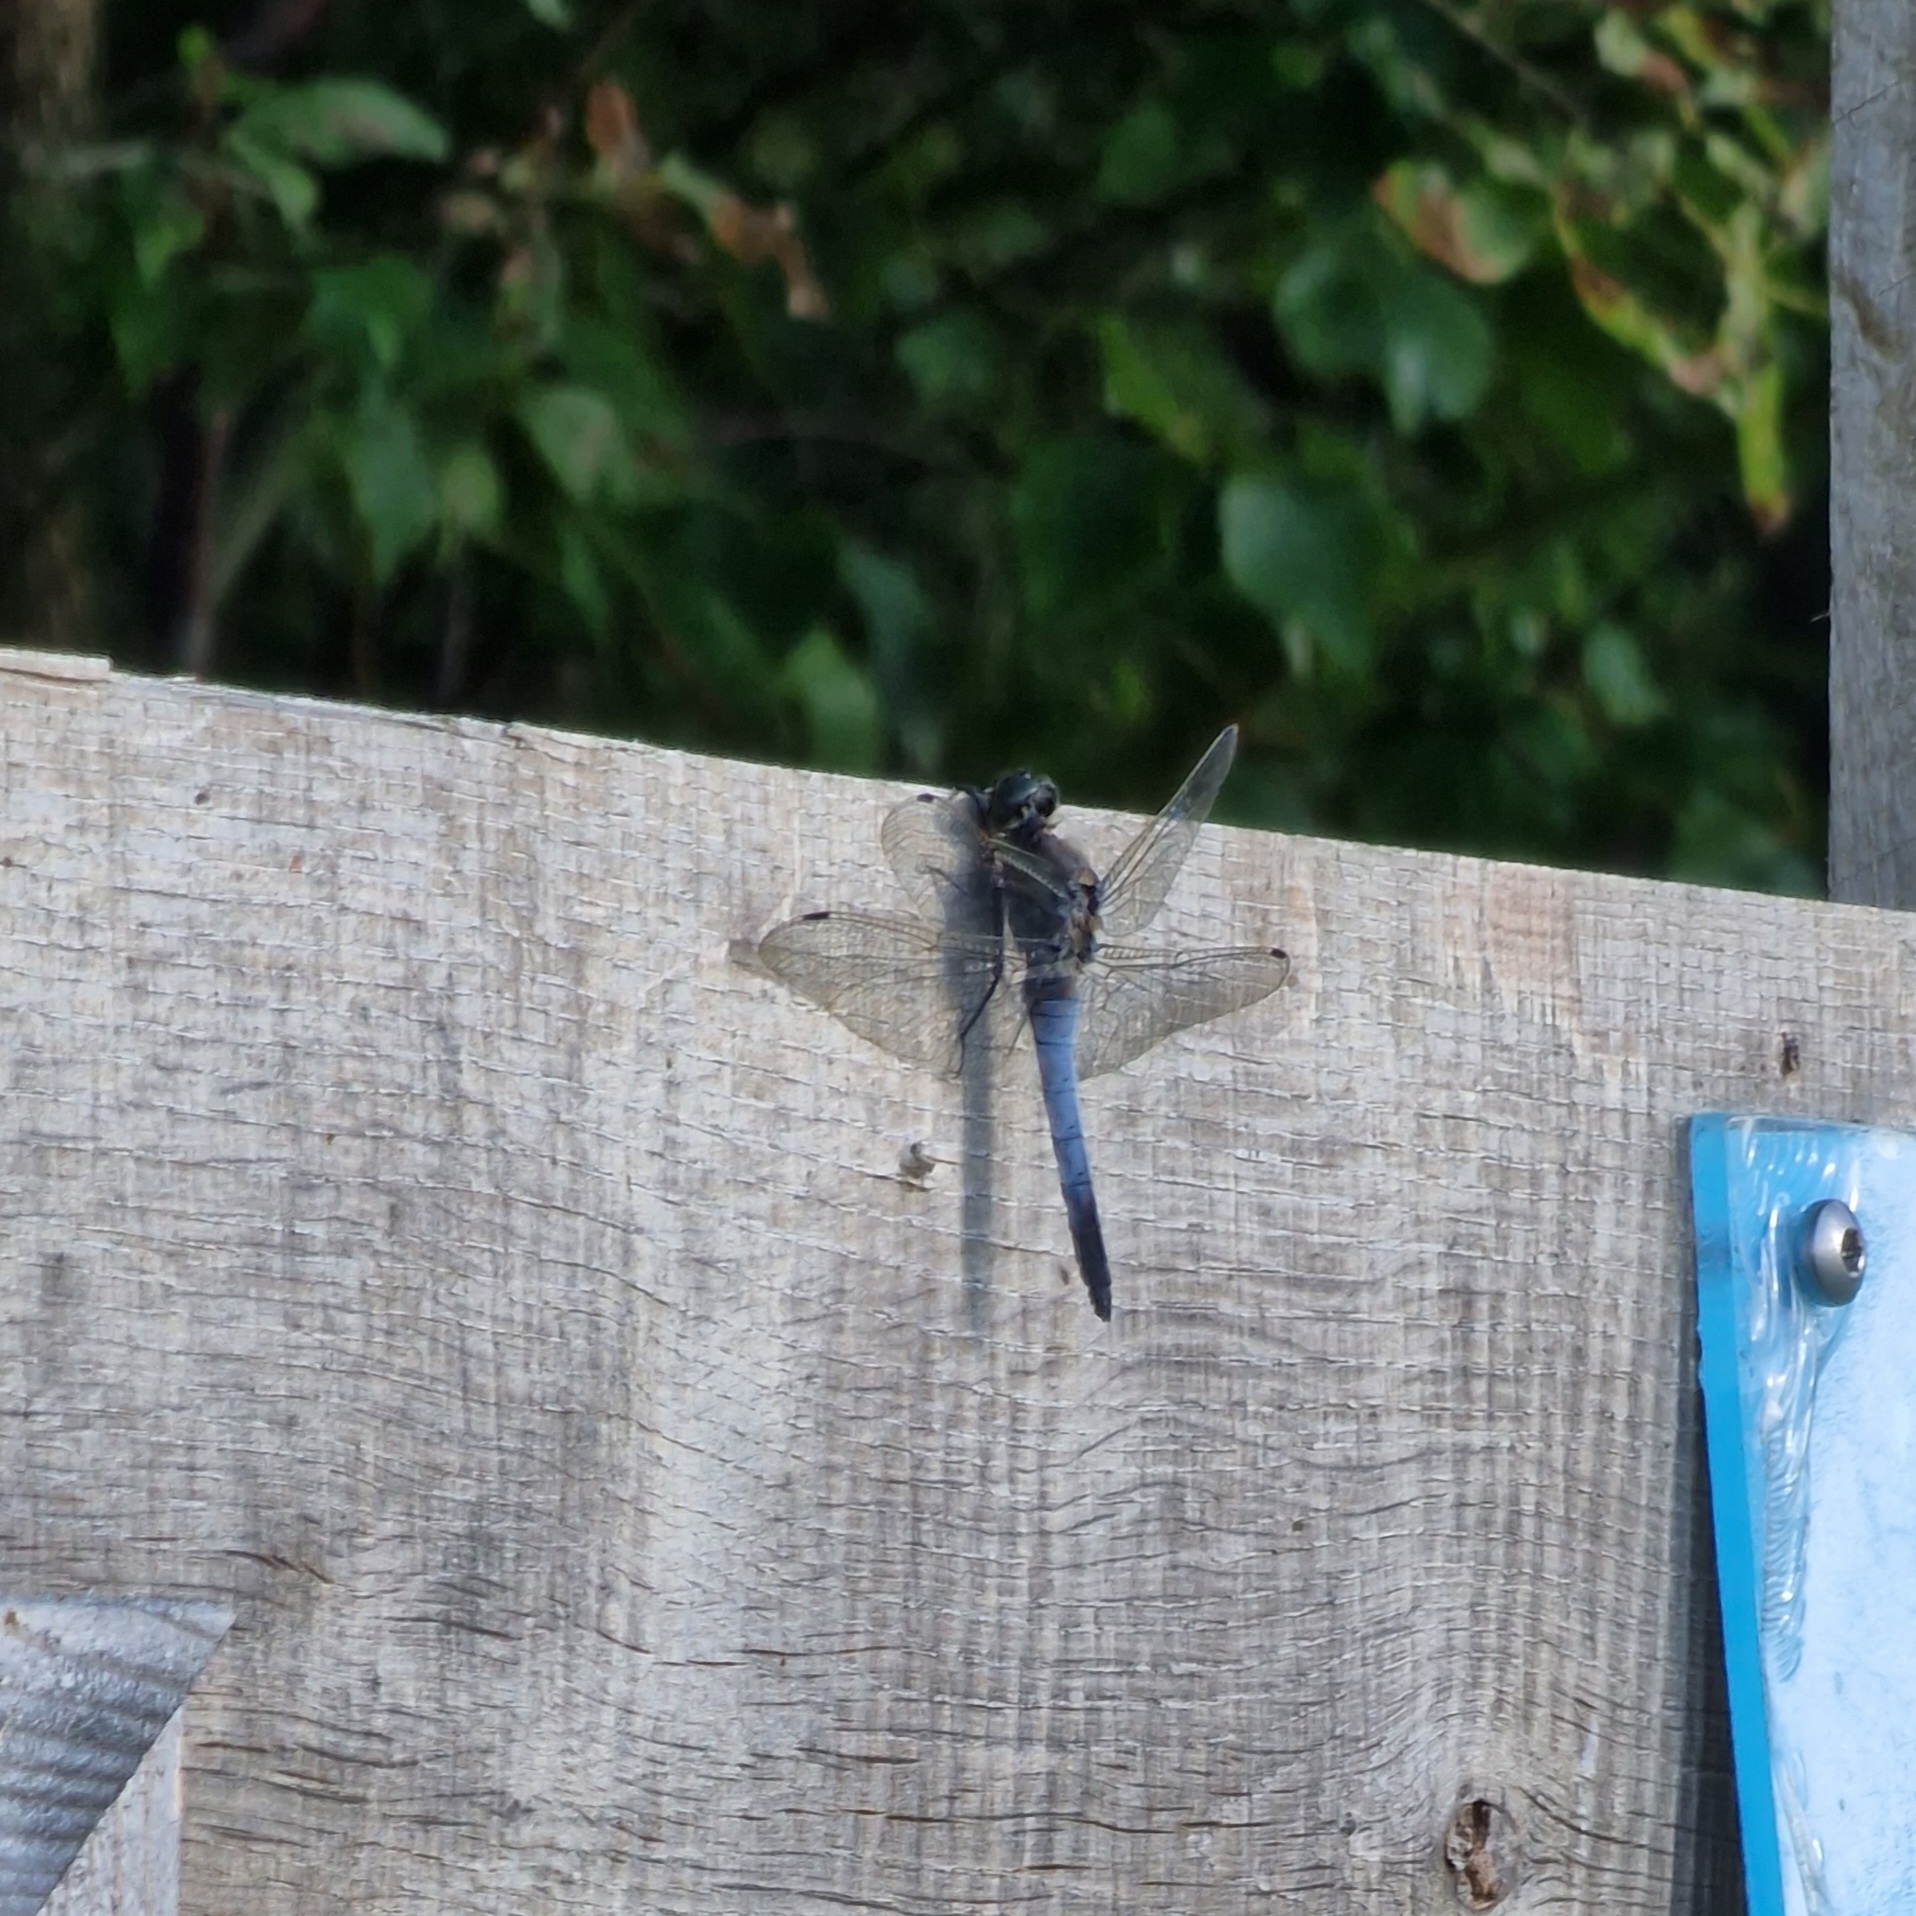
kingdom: Animalia
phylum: Arthropoda
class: Insecta
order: Odonata
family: Libellulidae
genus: Orthetrum
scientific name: Orthetrum cancellatum
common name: Black-tailed skimmer
